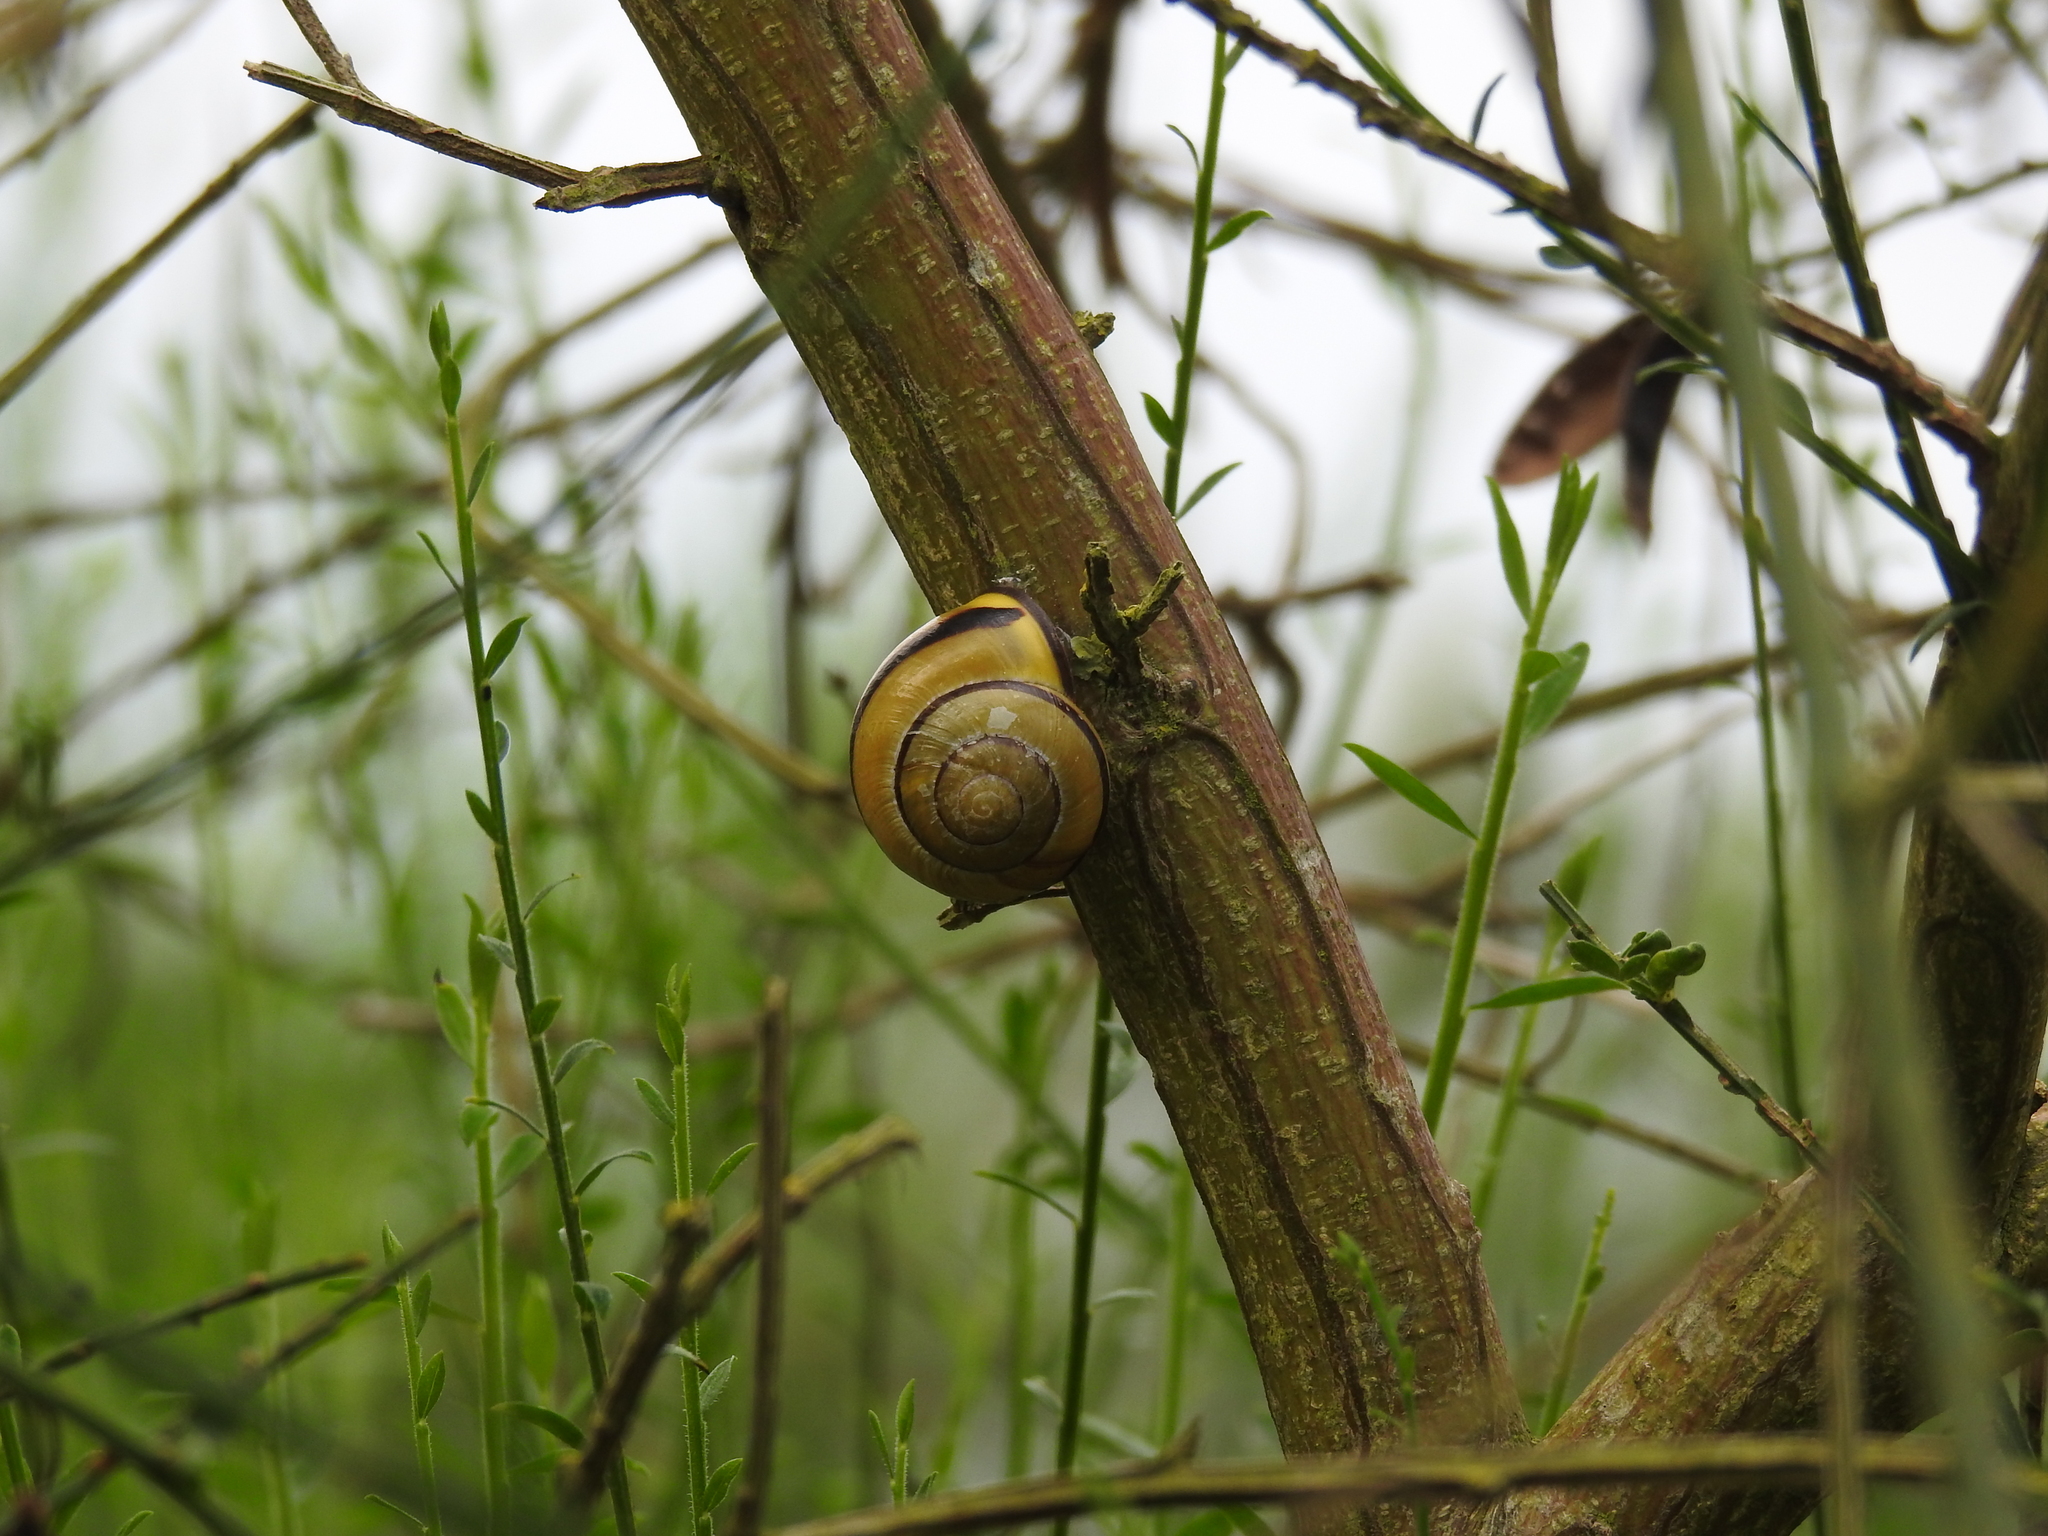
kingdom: Animalia
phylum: Mollusca
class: Gastropoda
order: Stylommatophora
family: Helicidae
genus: Cepaea
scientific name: Cepaea nemoralis
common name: Grovesnail
